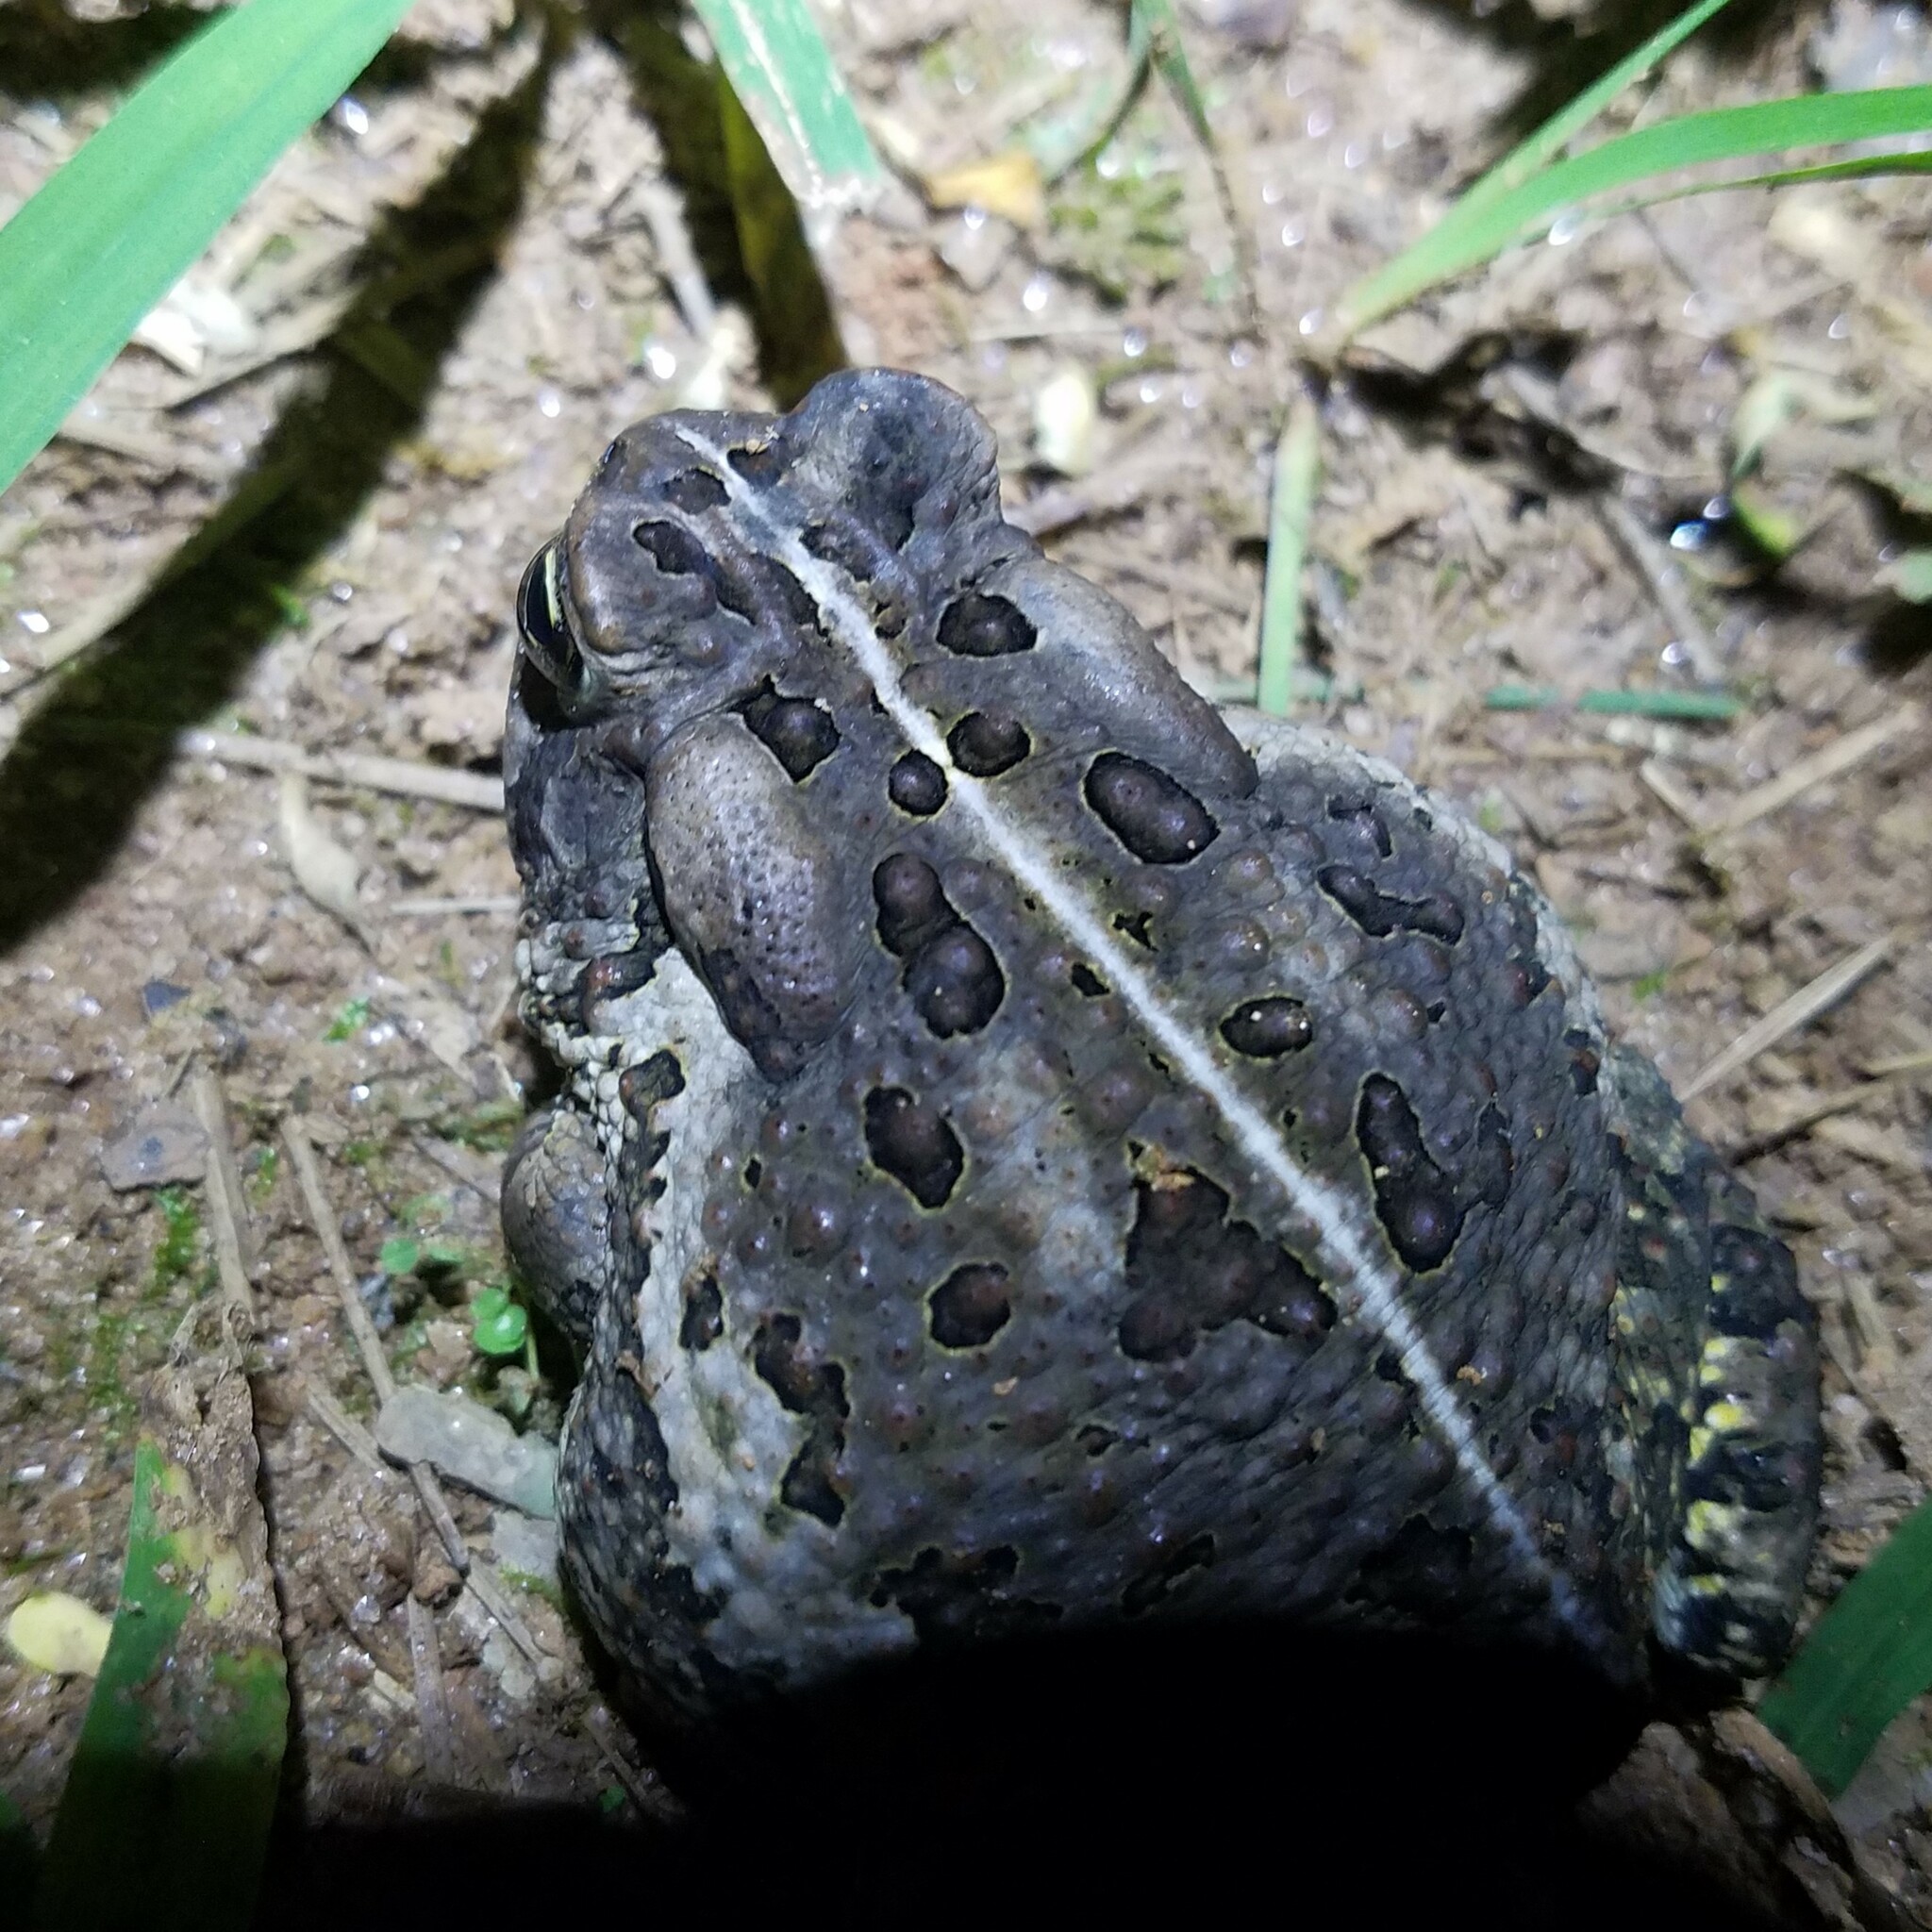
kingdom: Animalia
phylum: Chordata
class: Amphibia
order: Anura
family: Bufonidae
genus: Anaxyrus
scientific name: Anaxyrus fowleri
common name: Fowler's toad
